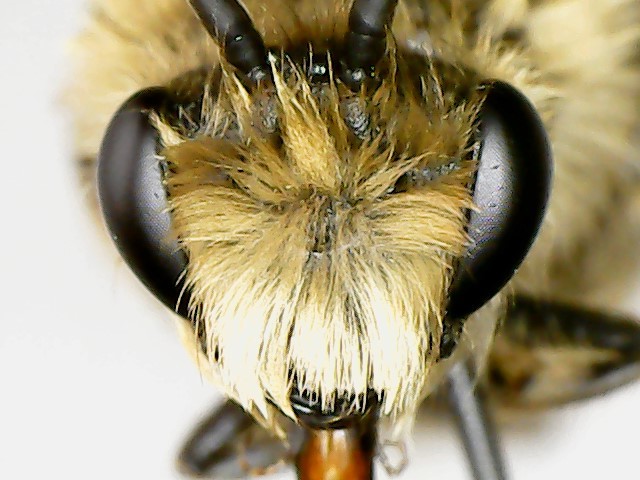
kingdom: Animalia
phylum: Arthropoda
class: Insecta
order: Hymenoptera
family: Colletidae
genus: Colletes
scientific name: Colletes inaequalis
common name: Unequal cellophane bee
